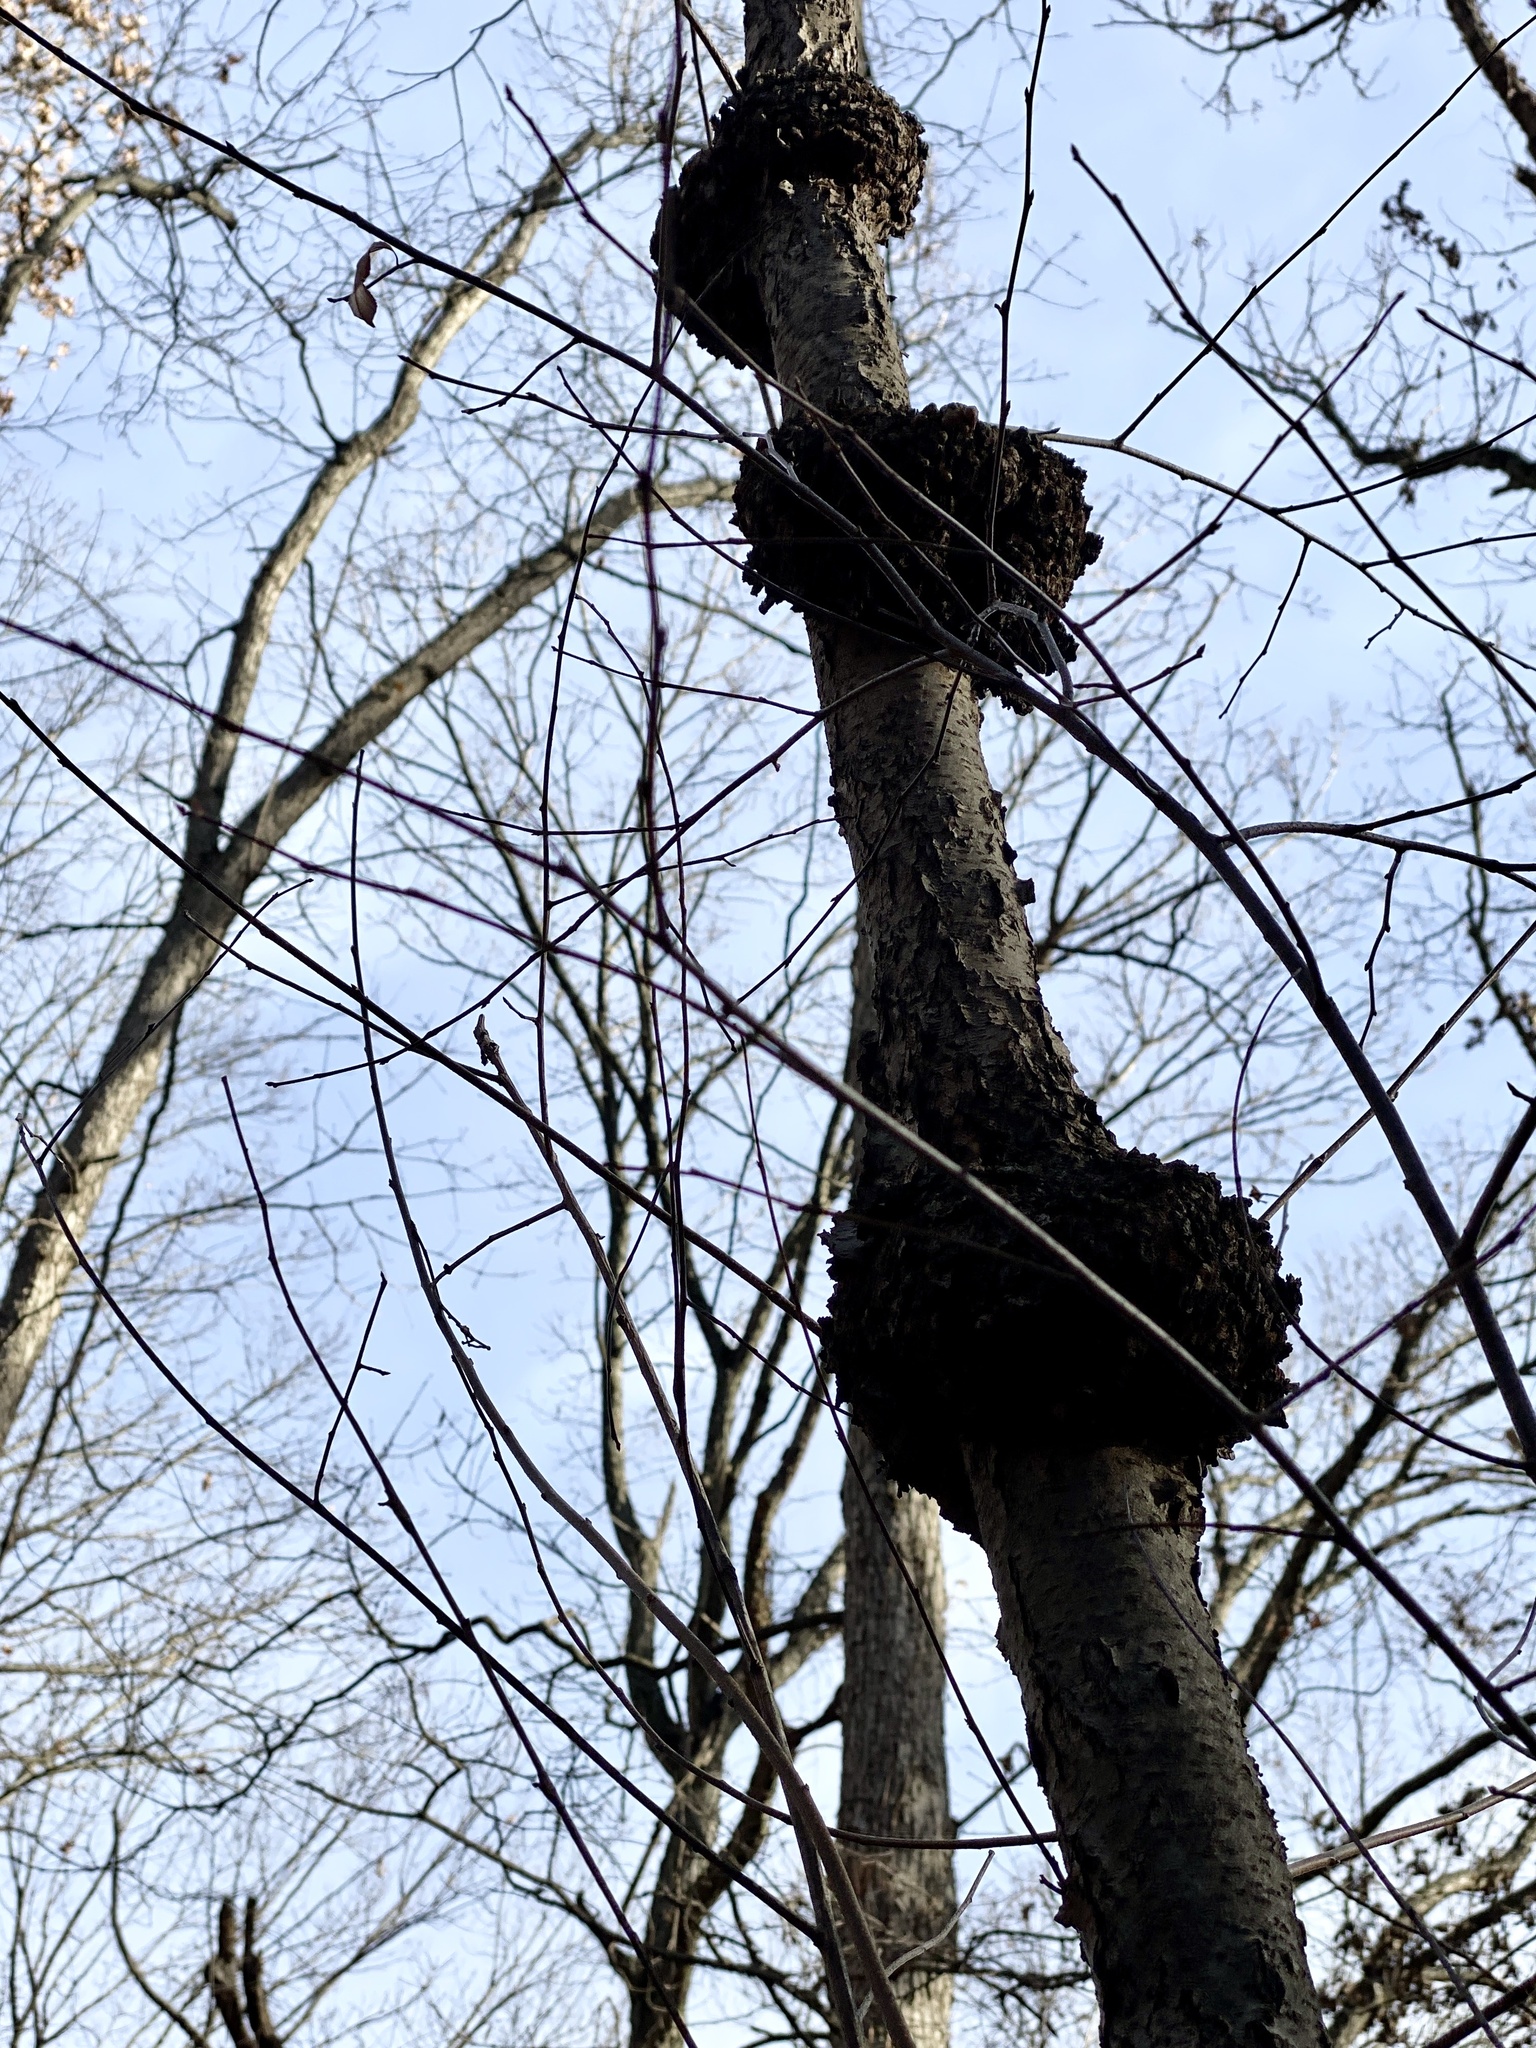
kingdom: Fungi
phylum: Ascomycota
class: Dothideomycetes
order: Venturiales
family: Venturiaceae
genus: Apiosporina
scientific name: Apiosporina morbosa
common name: Black knot
